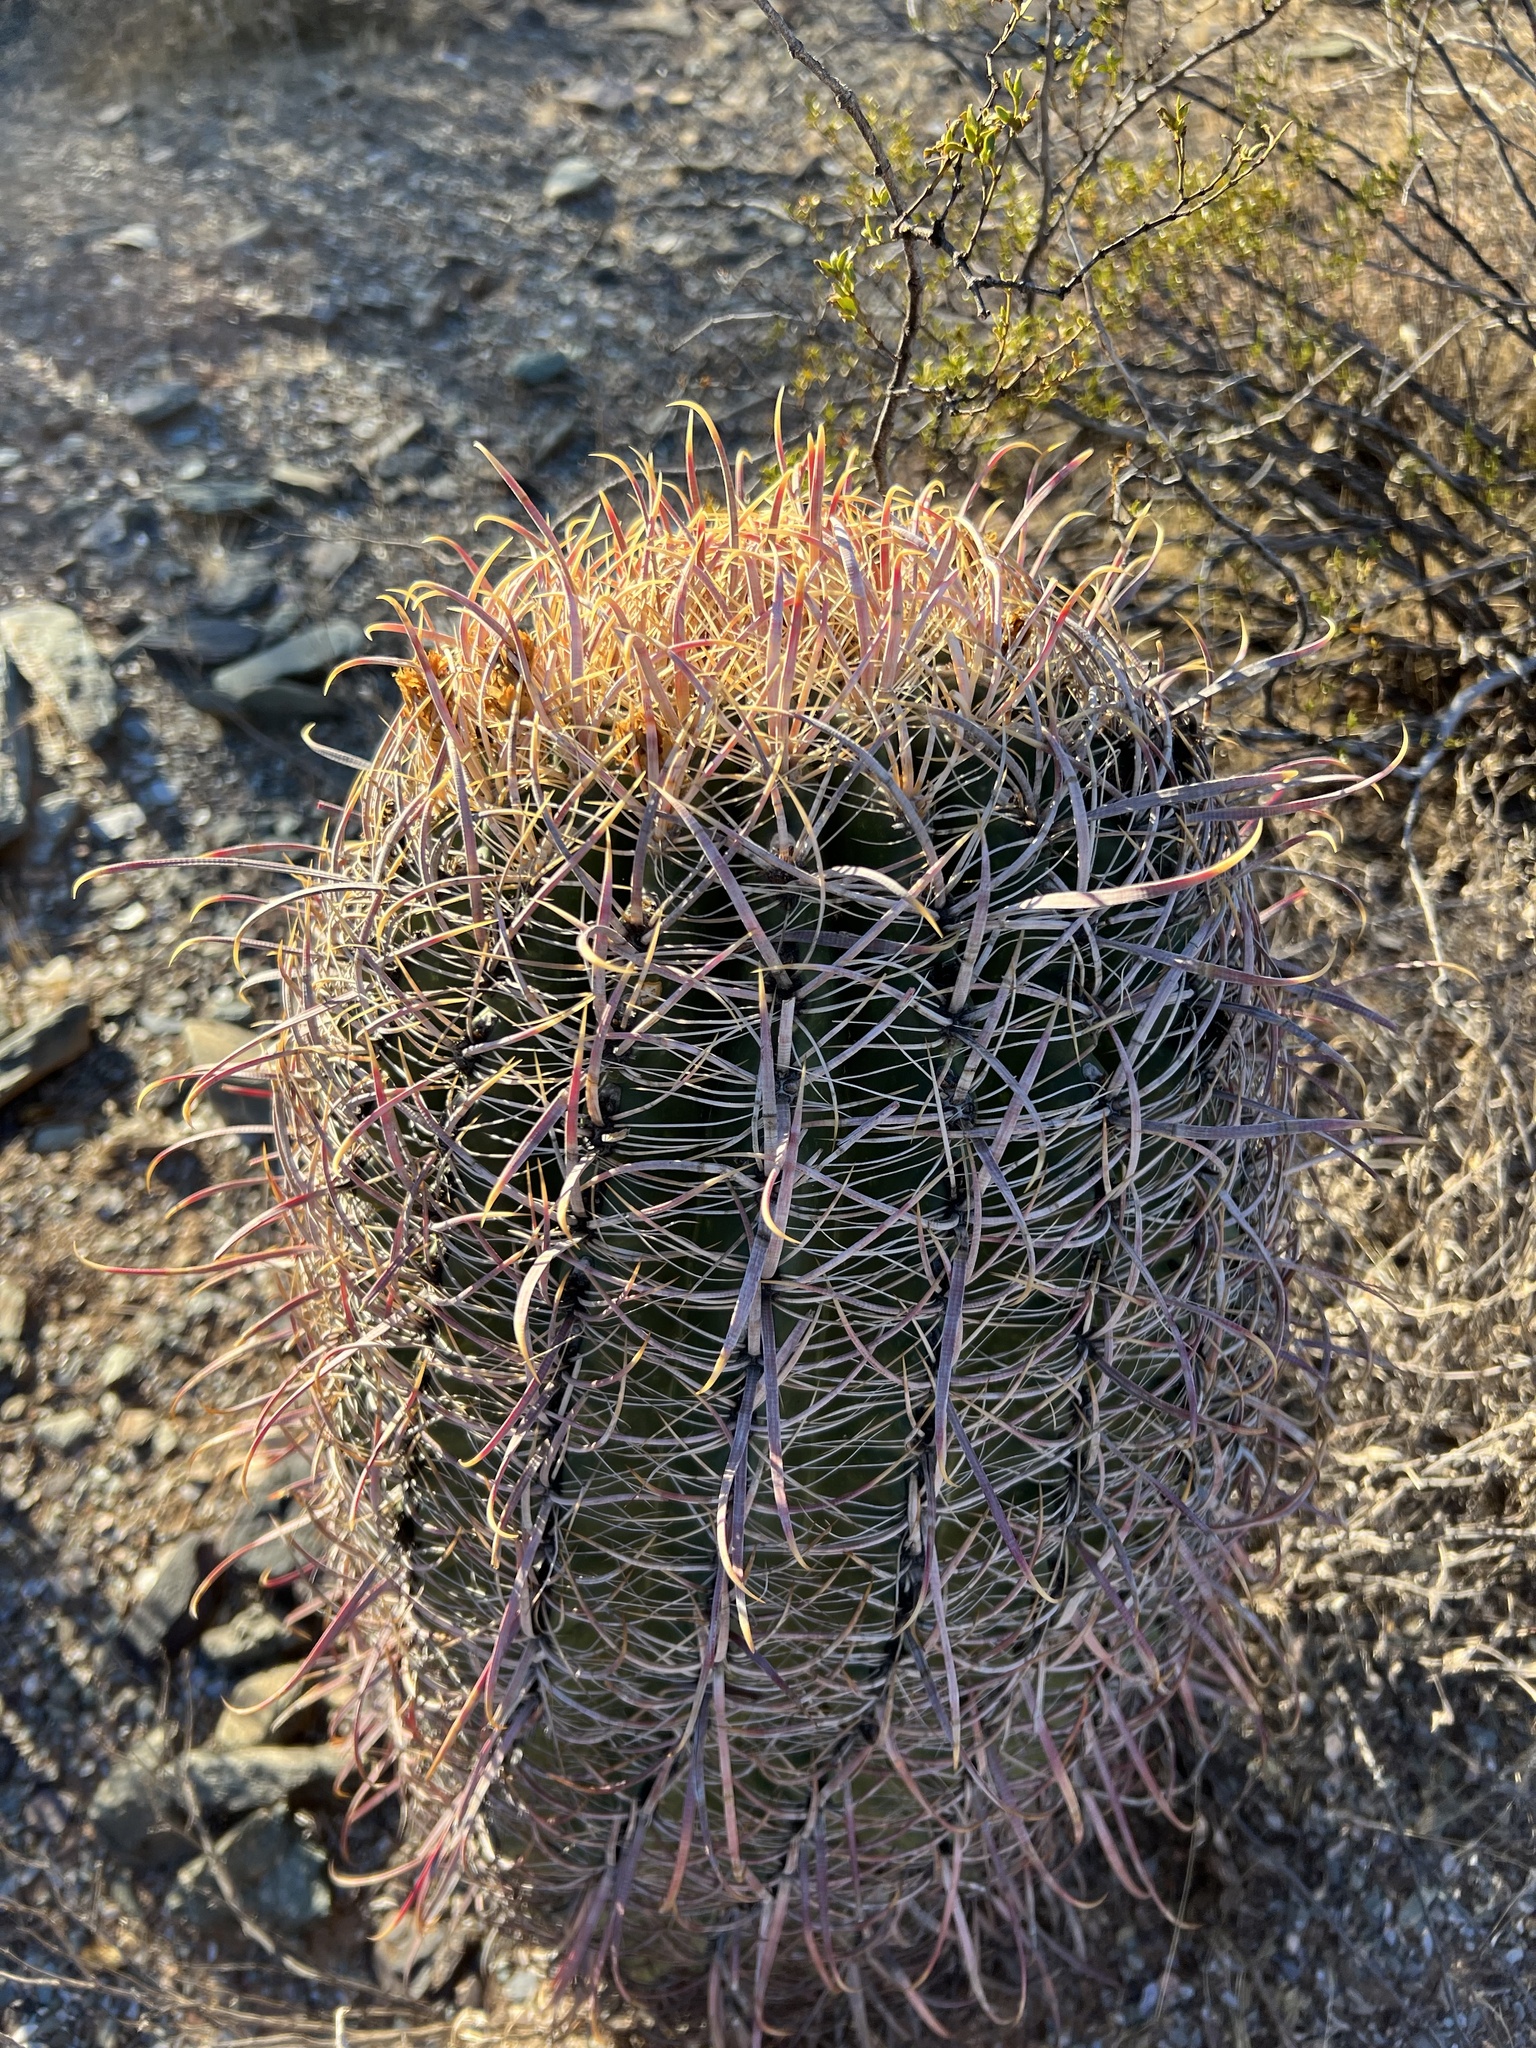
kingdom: Plantae
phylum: Tracheophyta
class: Magnoliopsida
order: Caryophyllales
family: Cactaceae
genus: Ferocactus
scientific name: Ferocactus cylindraceus
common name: California barrel cactus
